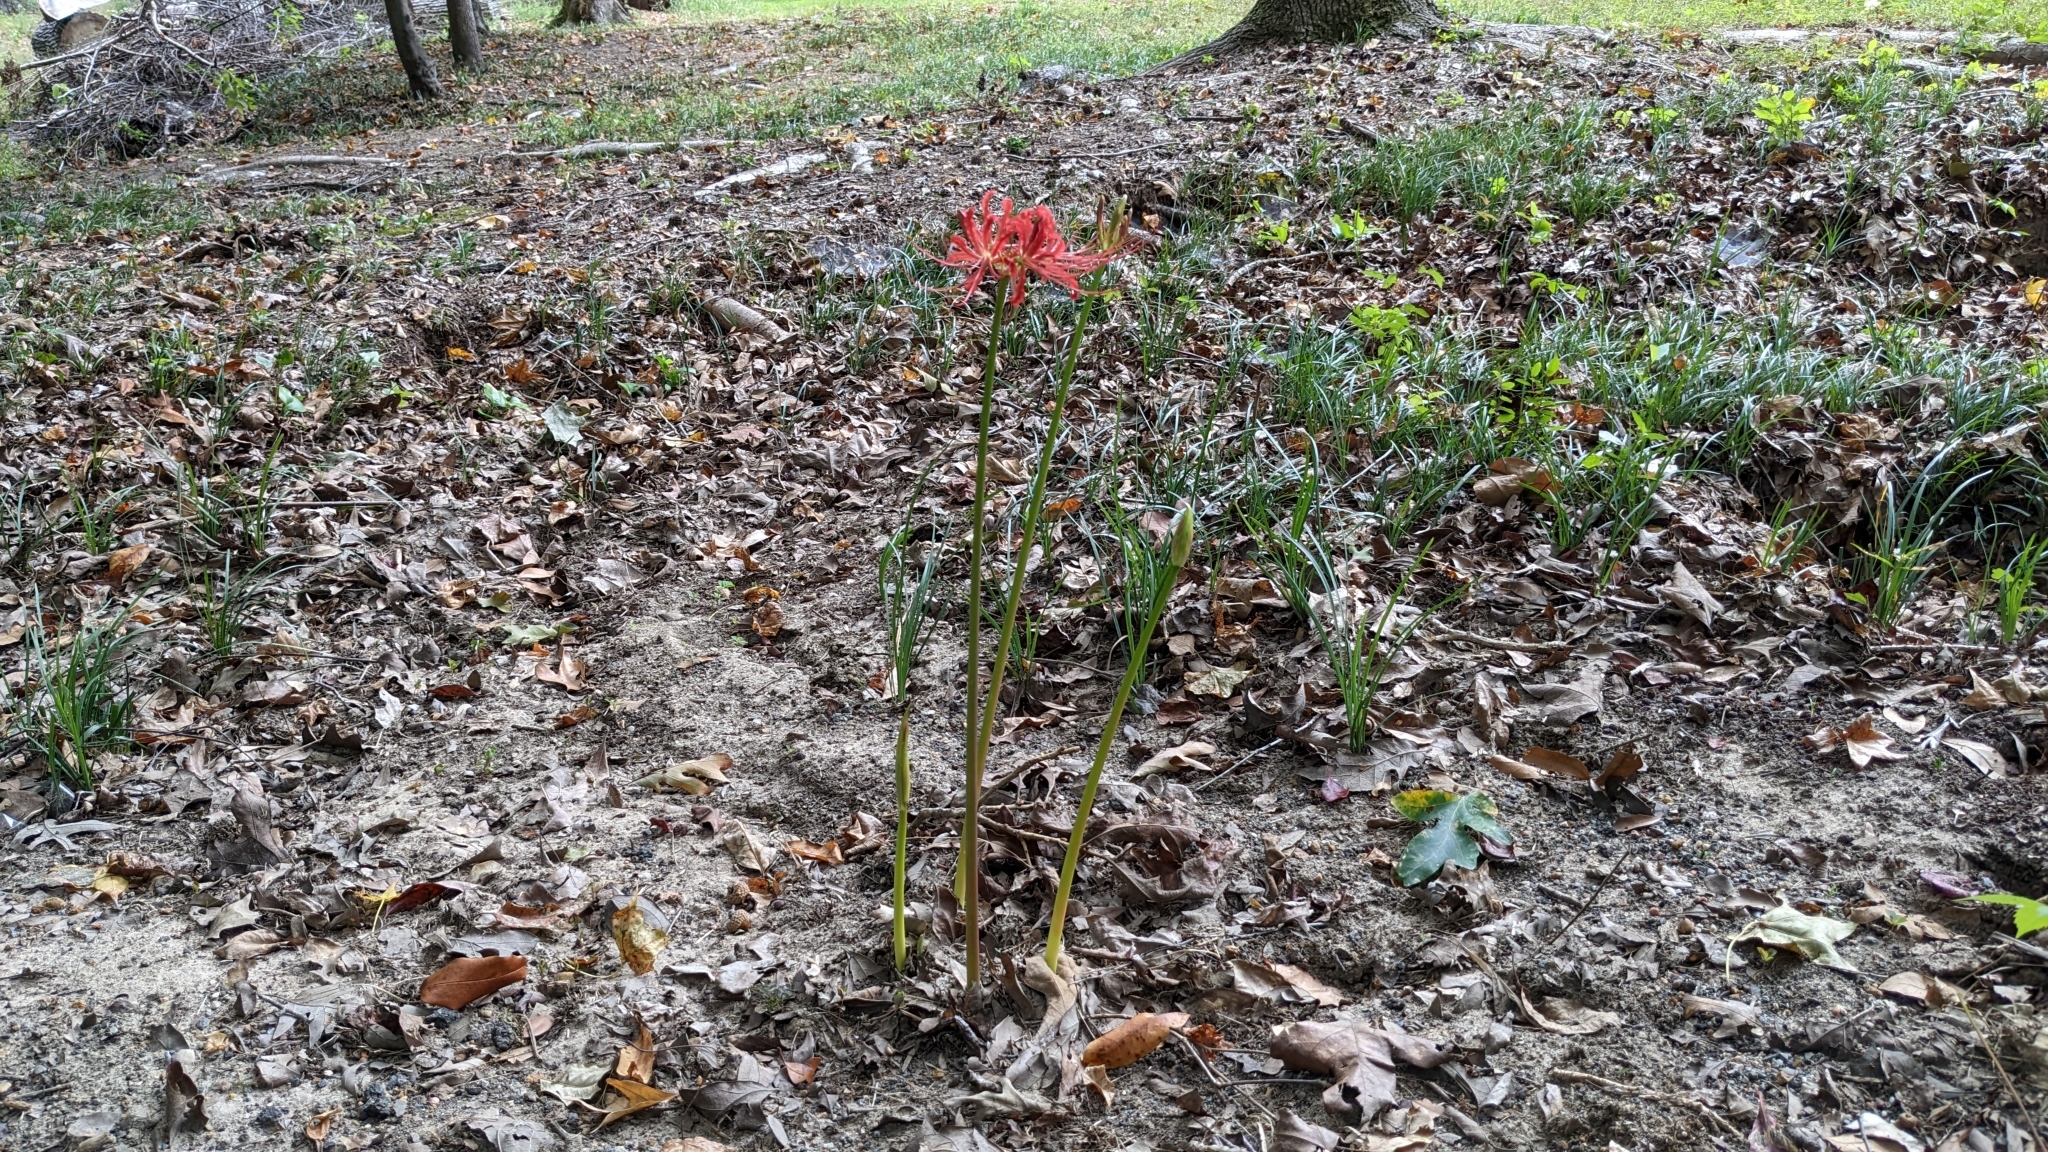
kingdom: Plantae
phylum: Tracheophyta
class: Liliopsida
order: Asparagales
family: Amaryllidaceae
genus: Lycoris
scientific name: Lycoris radiata
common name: Red spider lily
